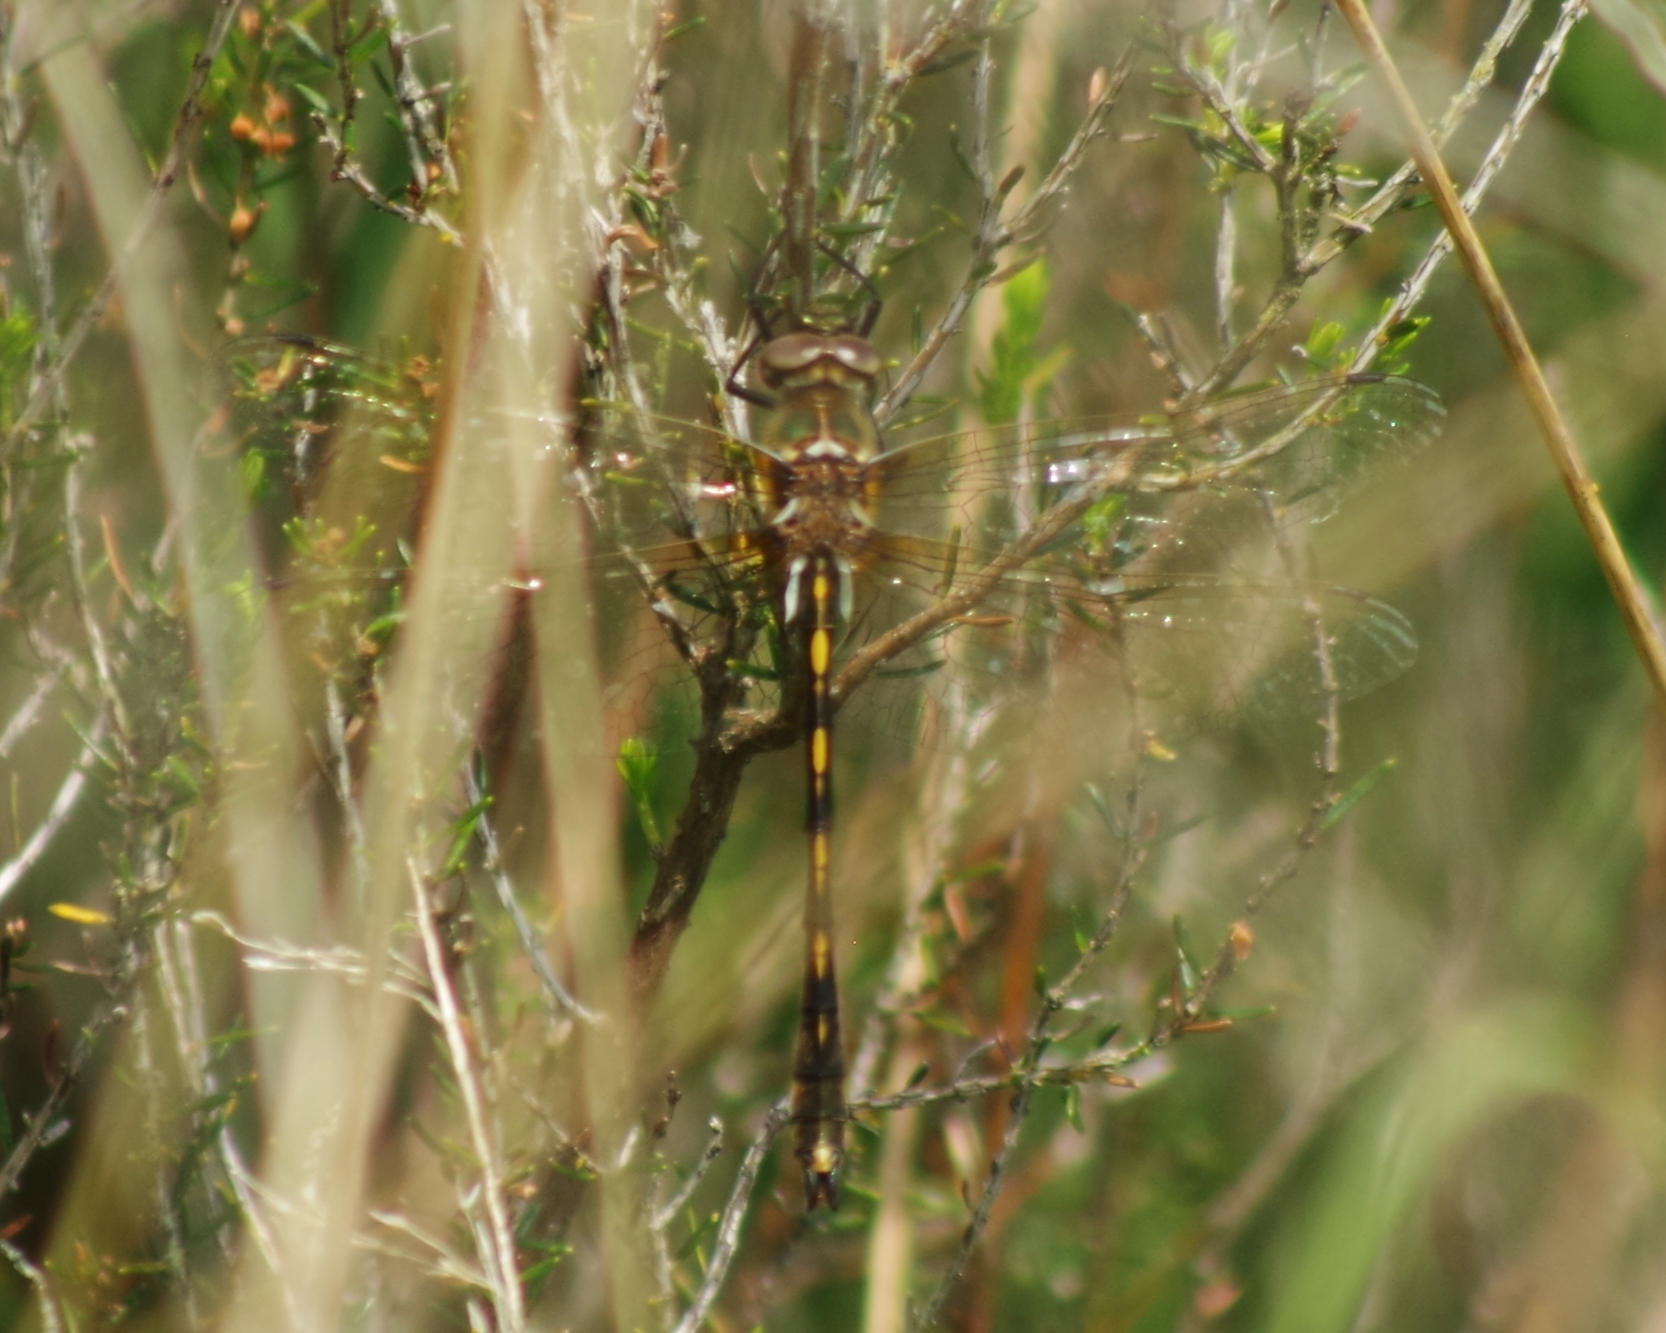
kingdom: Animalia
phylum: Arthropoda
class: Insecta
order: Odonata
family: Corduliidae
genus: Oxygastra
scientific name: Oxygastra curtisii
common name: Orange-spotted emerald
